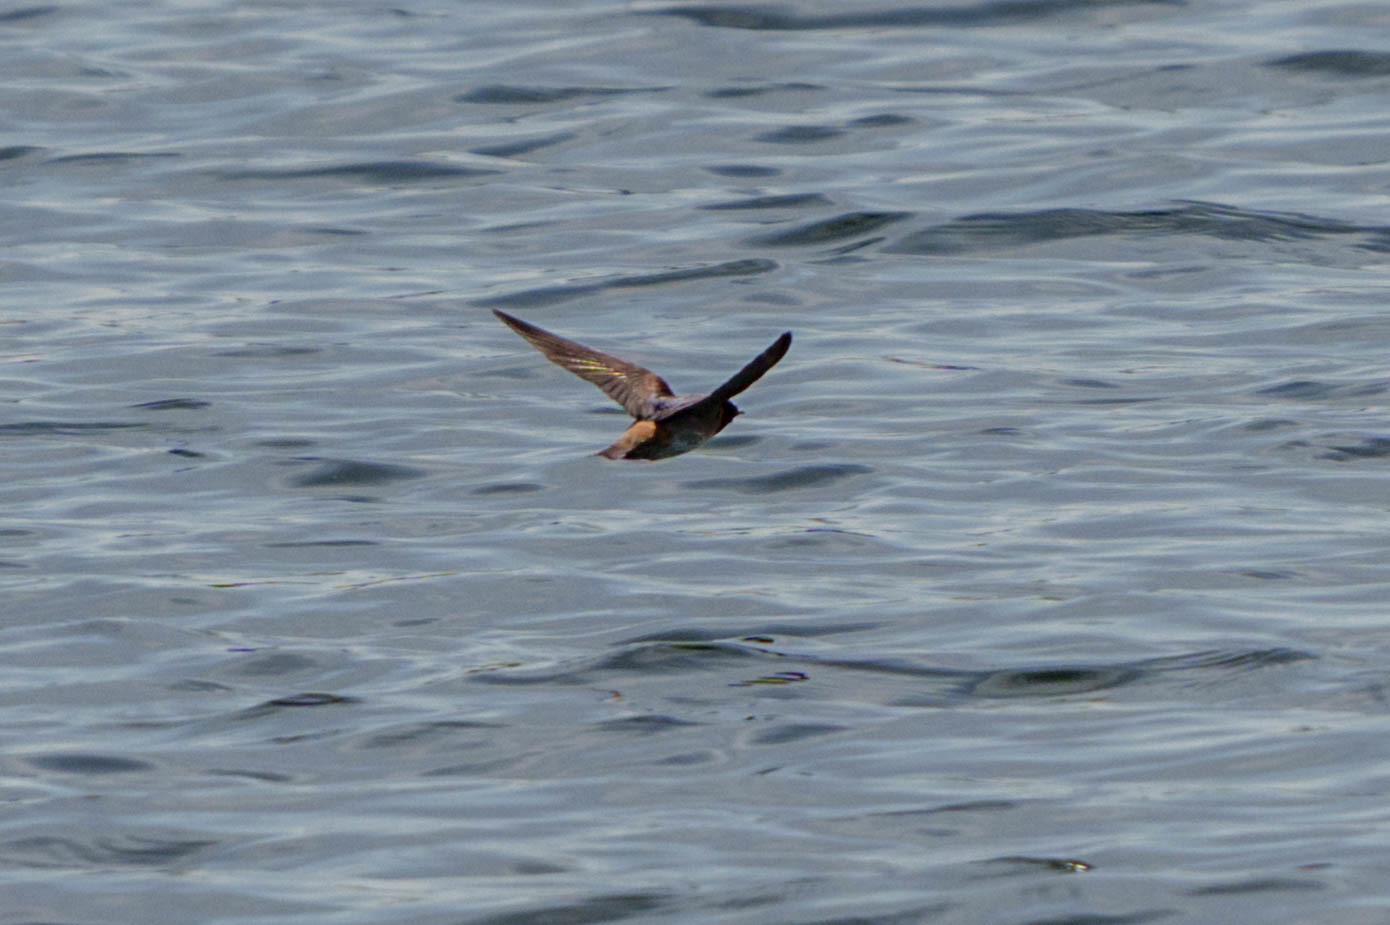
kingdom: Animalia
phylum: Chordata
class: Aves
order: Passeriformes
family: Hirundinidae
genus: Petrochelidon
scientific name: Petrochelidon pyrrhonota
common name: American cliff swallow
